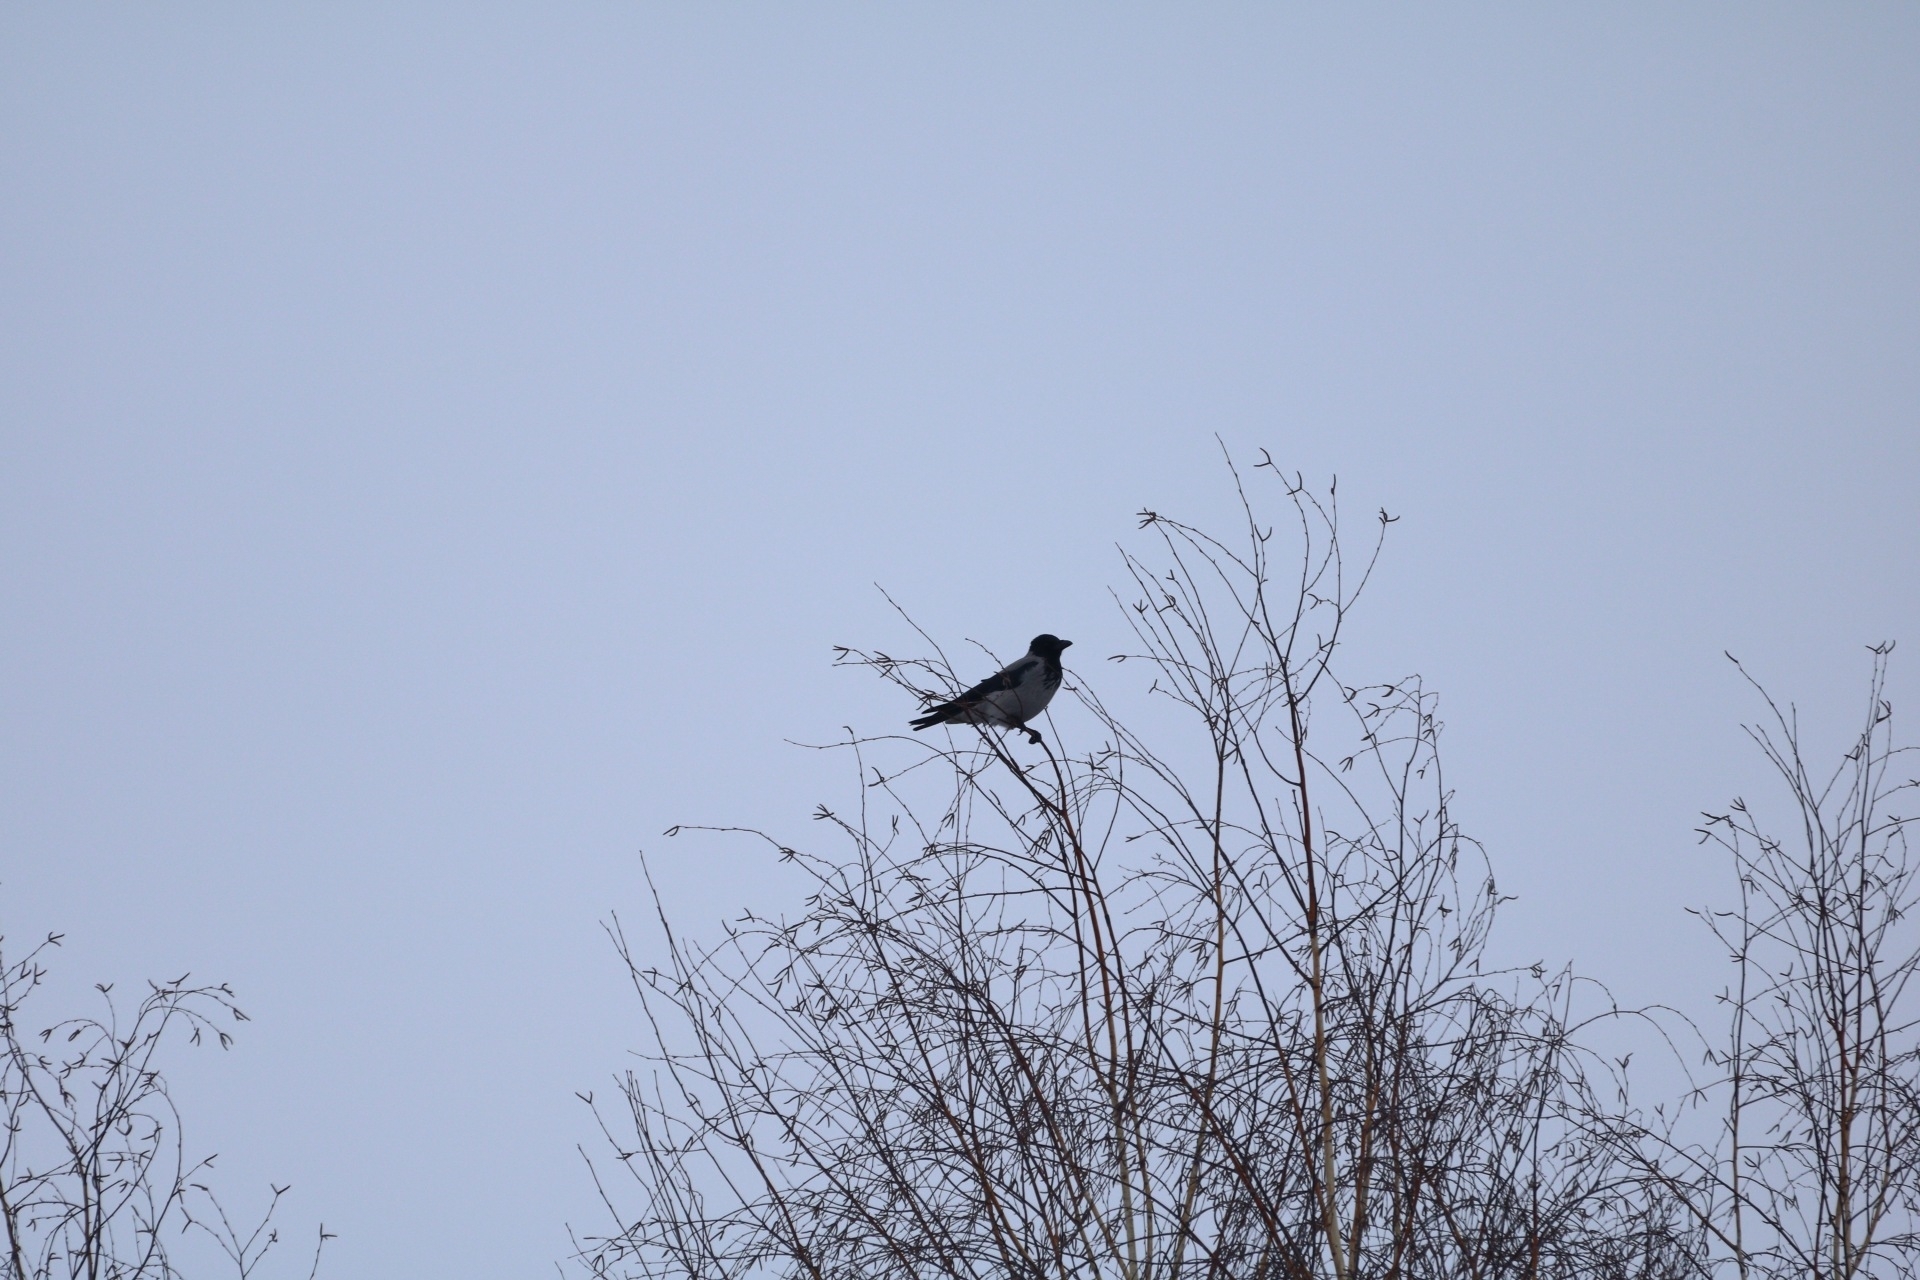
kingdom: Animalia
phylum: Chordata
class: Aves
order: Passeriformes
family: Corvidae
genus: Corvus
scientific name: Corvus cornix
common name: Hooded crow
